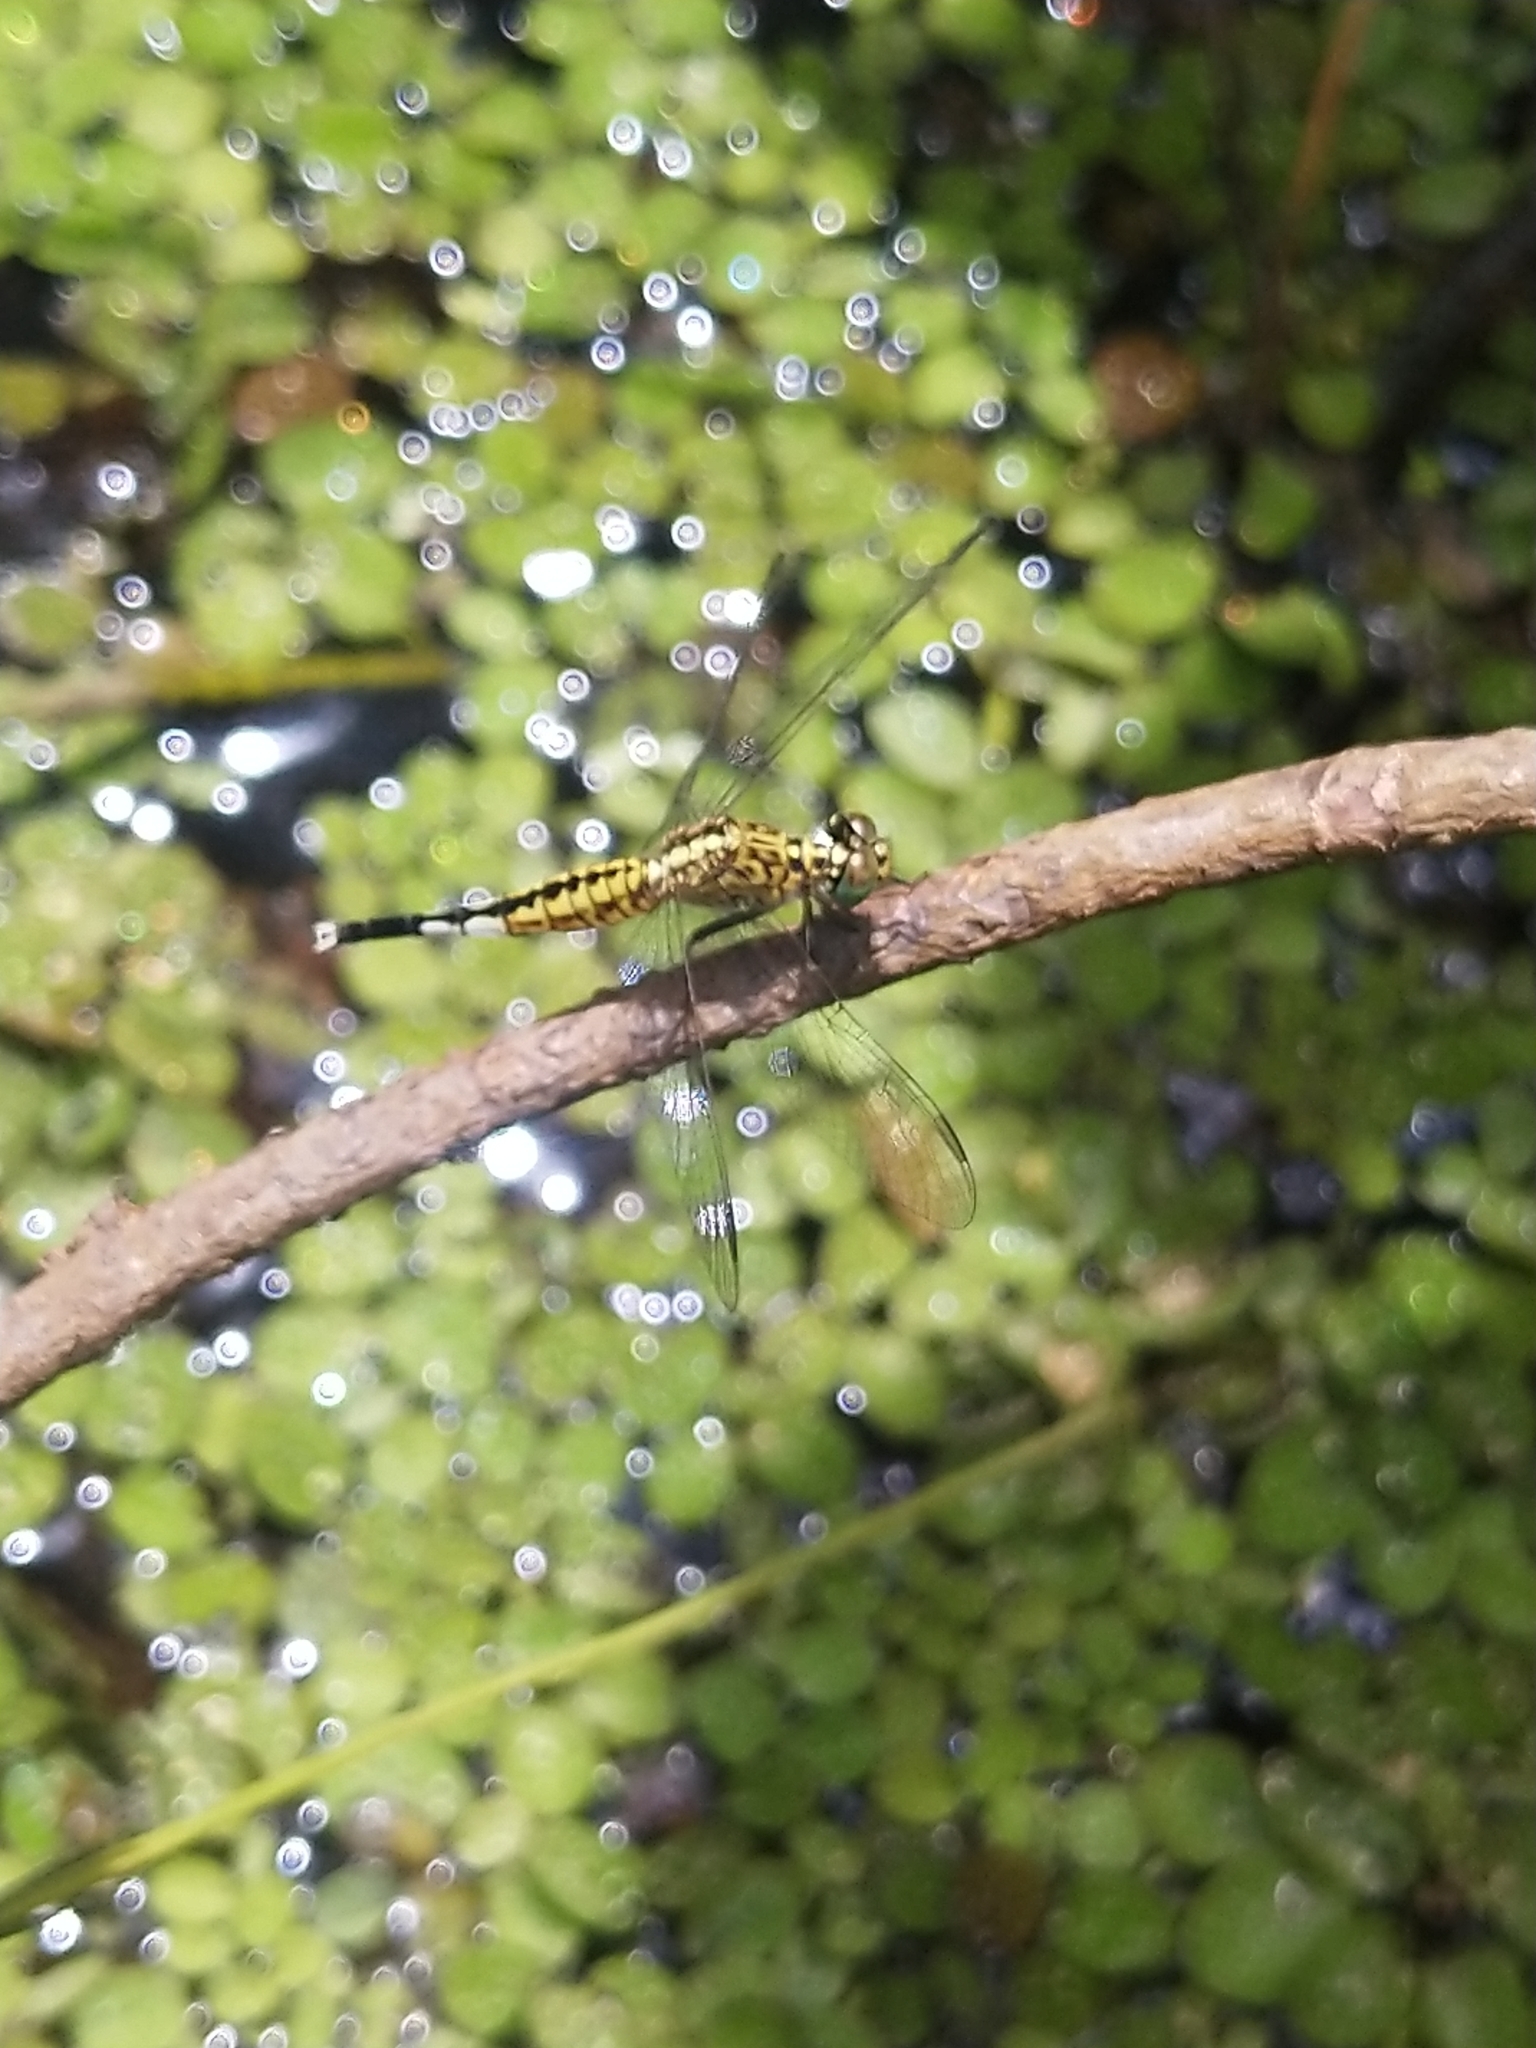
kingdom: Animalia
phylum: Arthropoda
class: Insecta
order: Odonata
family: Libellulidae
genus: Acisoma
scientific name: Acisoma panorpoides
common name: Asian pintail
